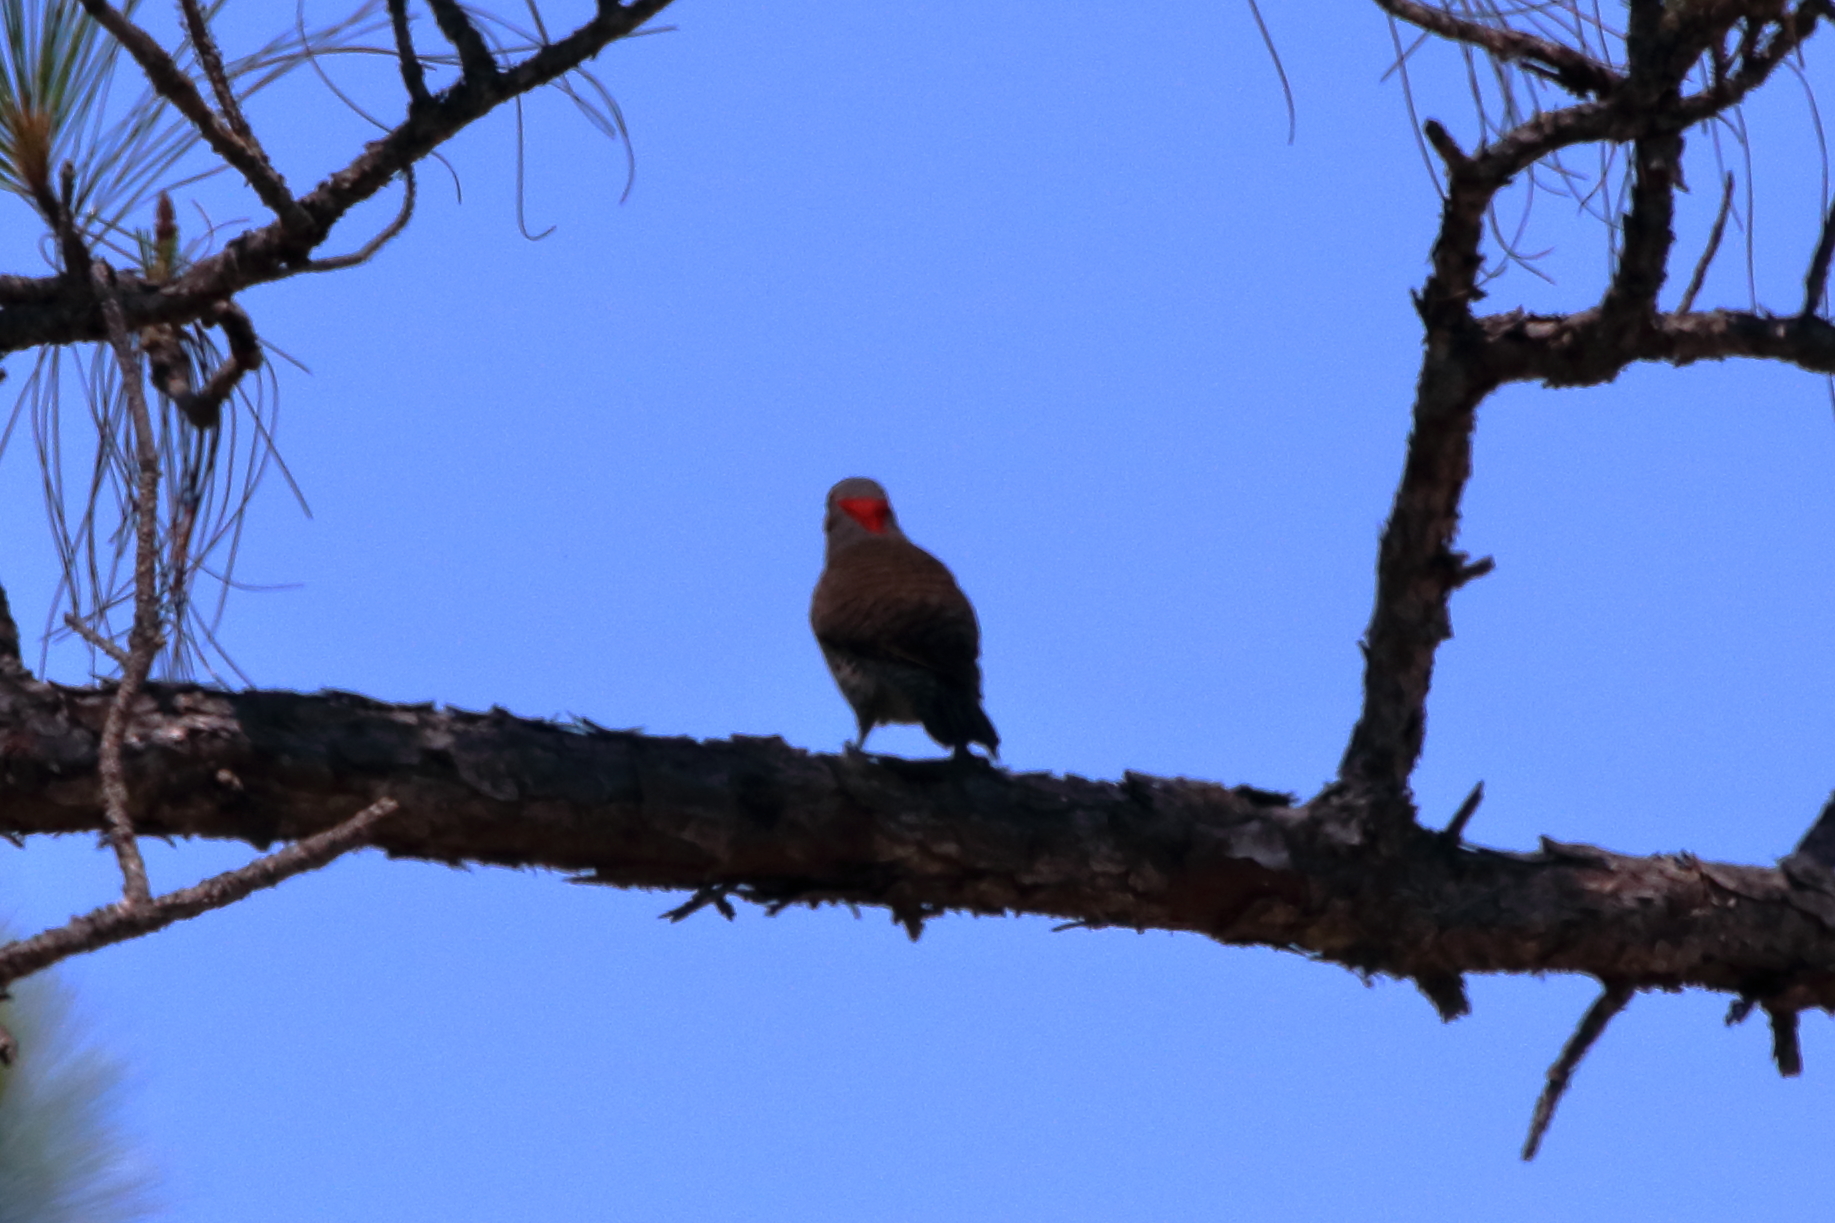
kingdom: Animalia
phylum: Chordata
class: Aves
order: Piciformes
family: Picidae
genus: Colaptes
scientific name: Colaptes auratus
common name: Northern flicker
